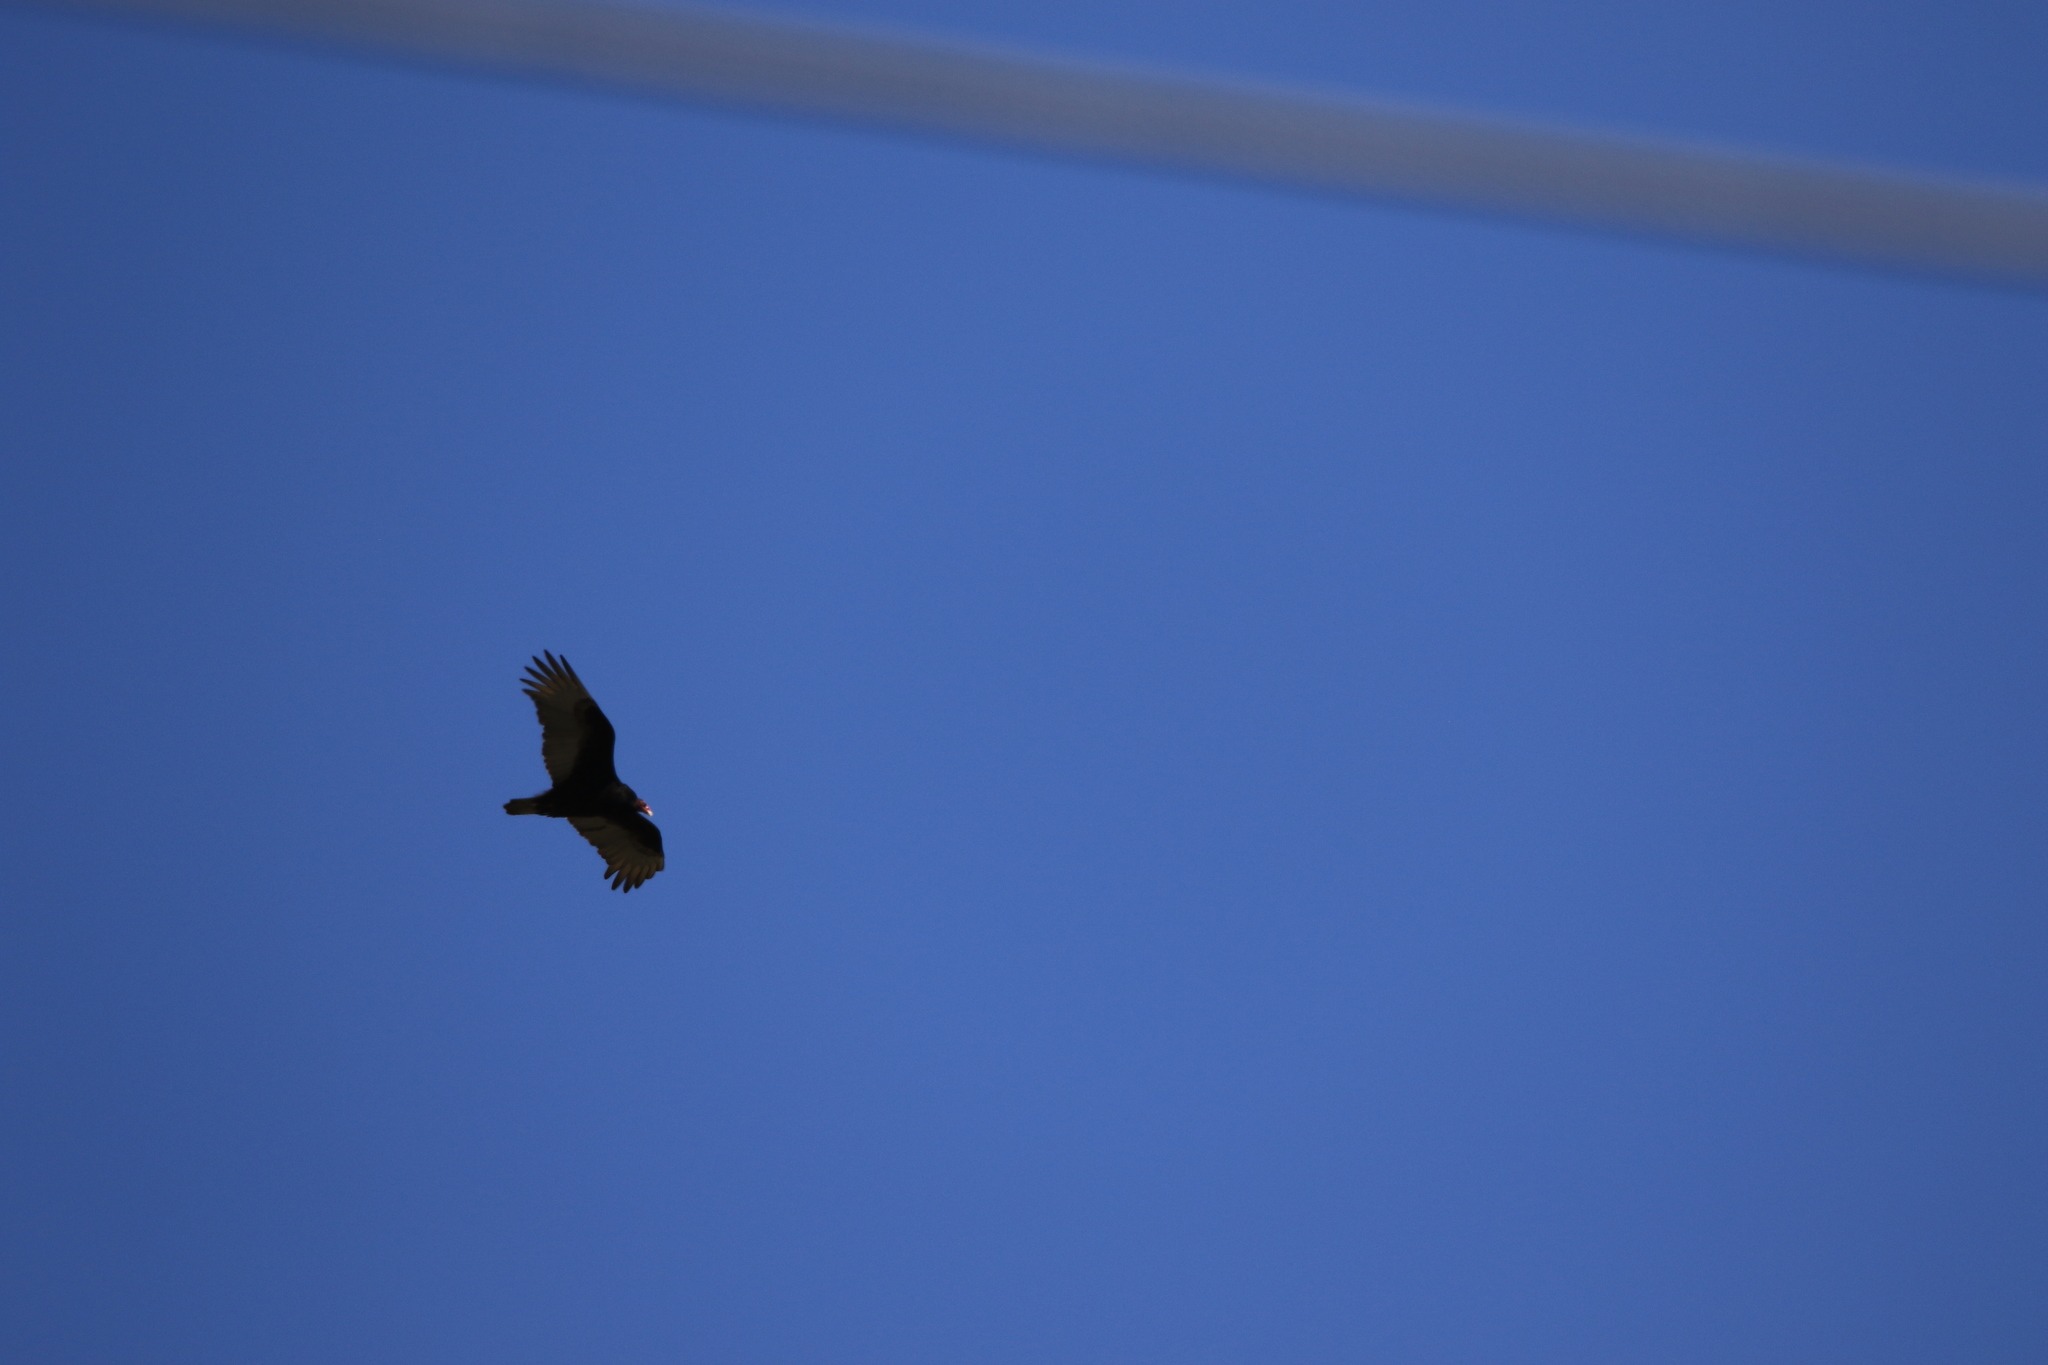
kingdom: Animalia
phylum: Chordata
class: Aves
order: Accipitriformes
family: Cathartidae
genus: Cathartes
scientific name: Cathartes aura
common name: Turkey vulture
